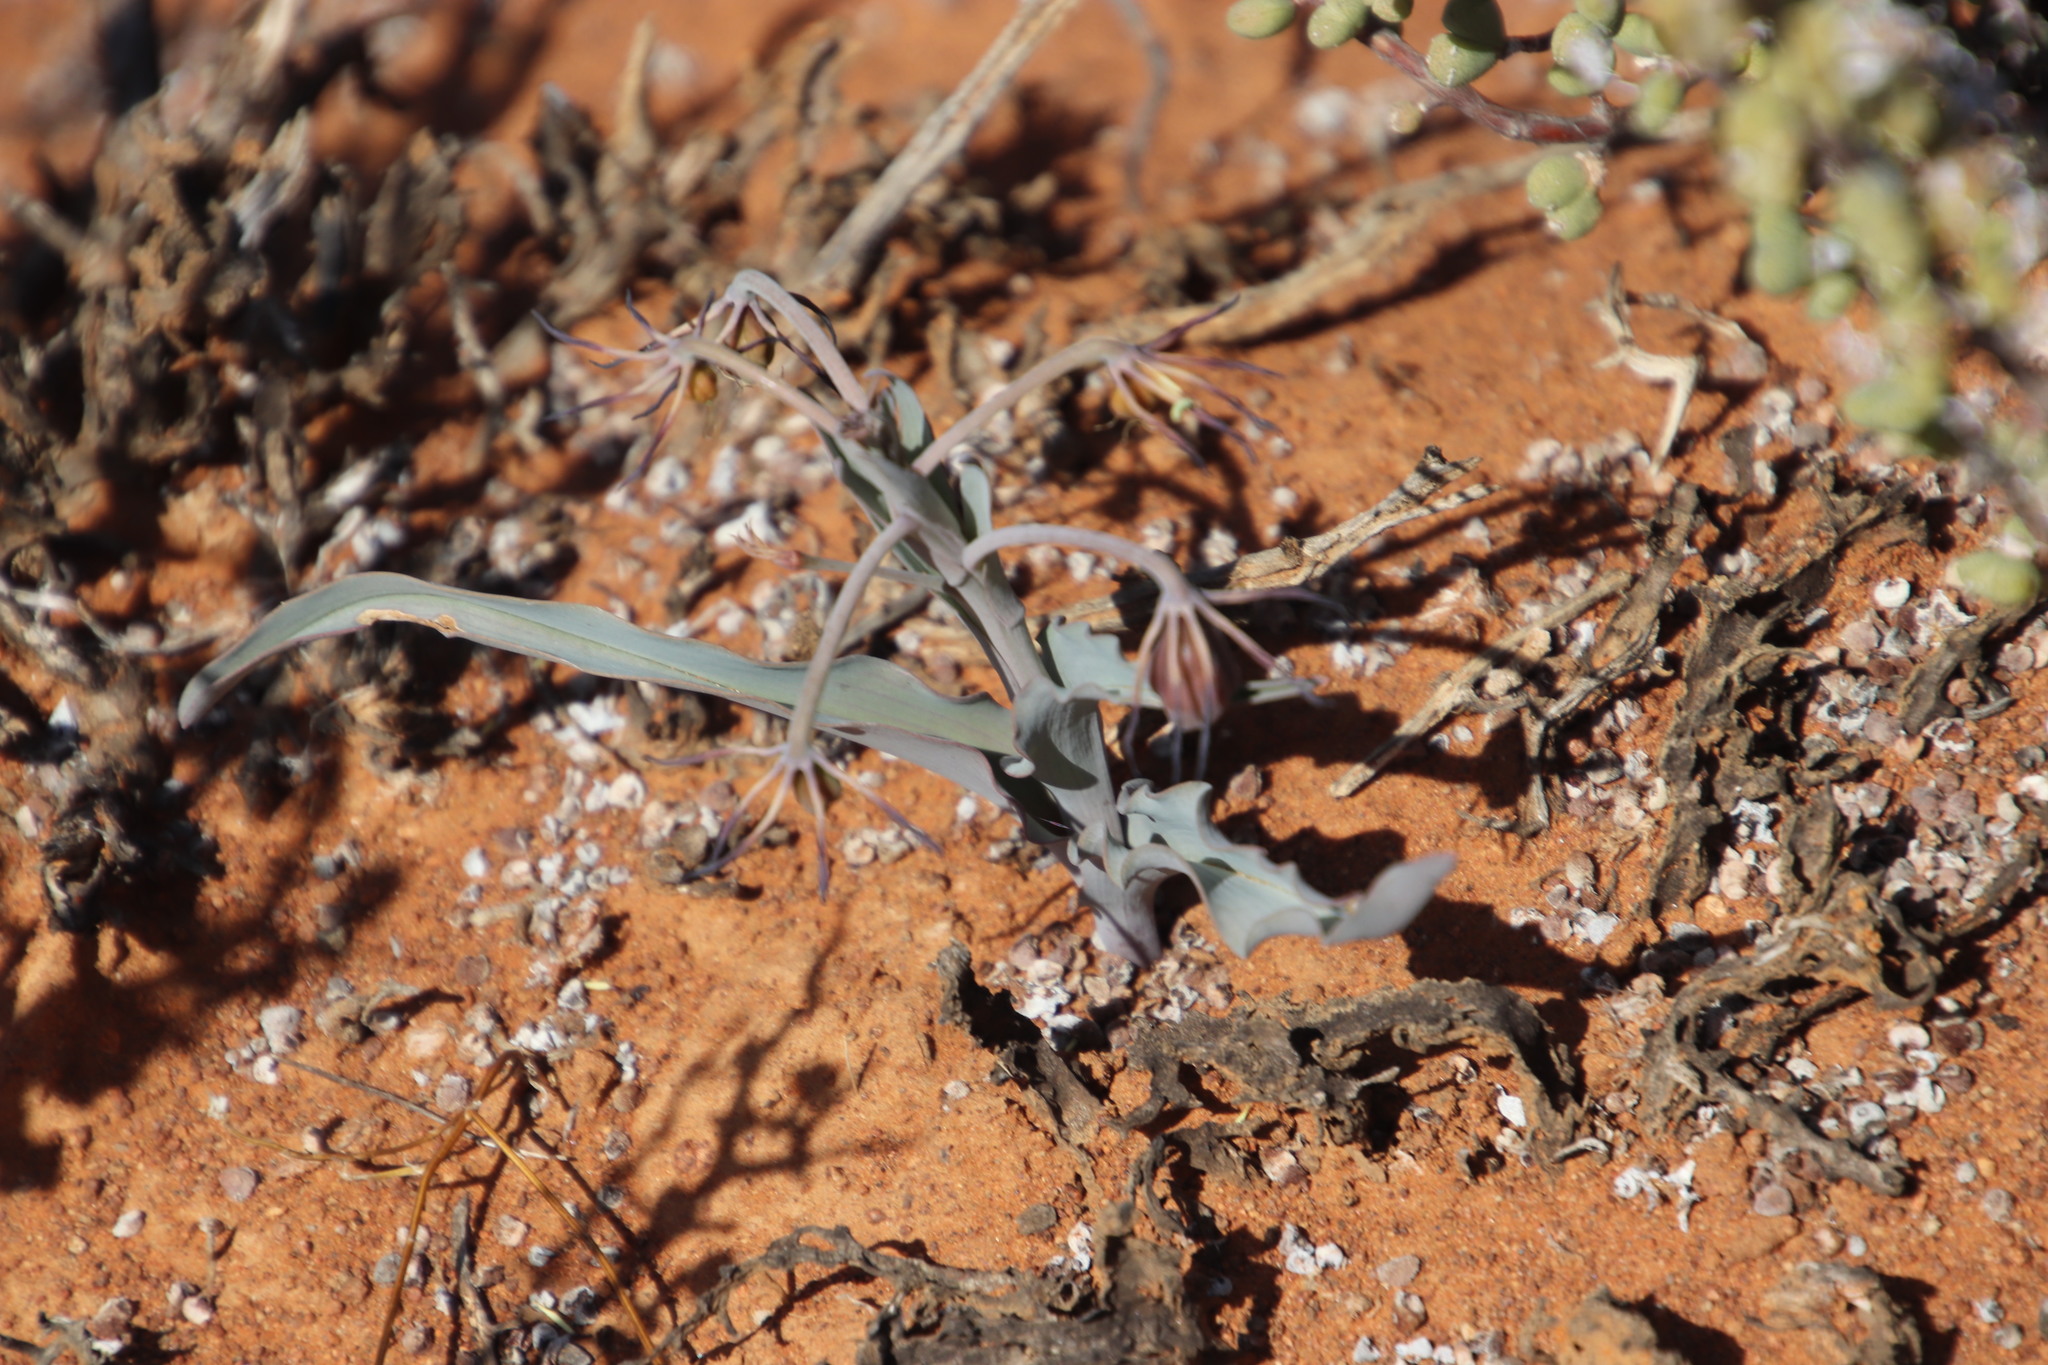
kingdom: Plantae
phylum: Tracheophyta
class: Liliopsida
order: Liliales
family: Colchicaceae
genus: Ornithoglossum
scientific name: Ornithoglossum vulgare
